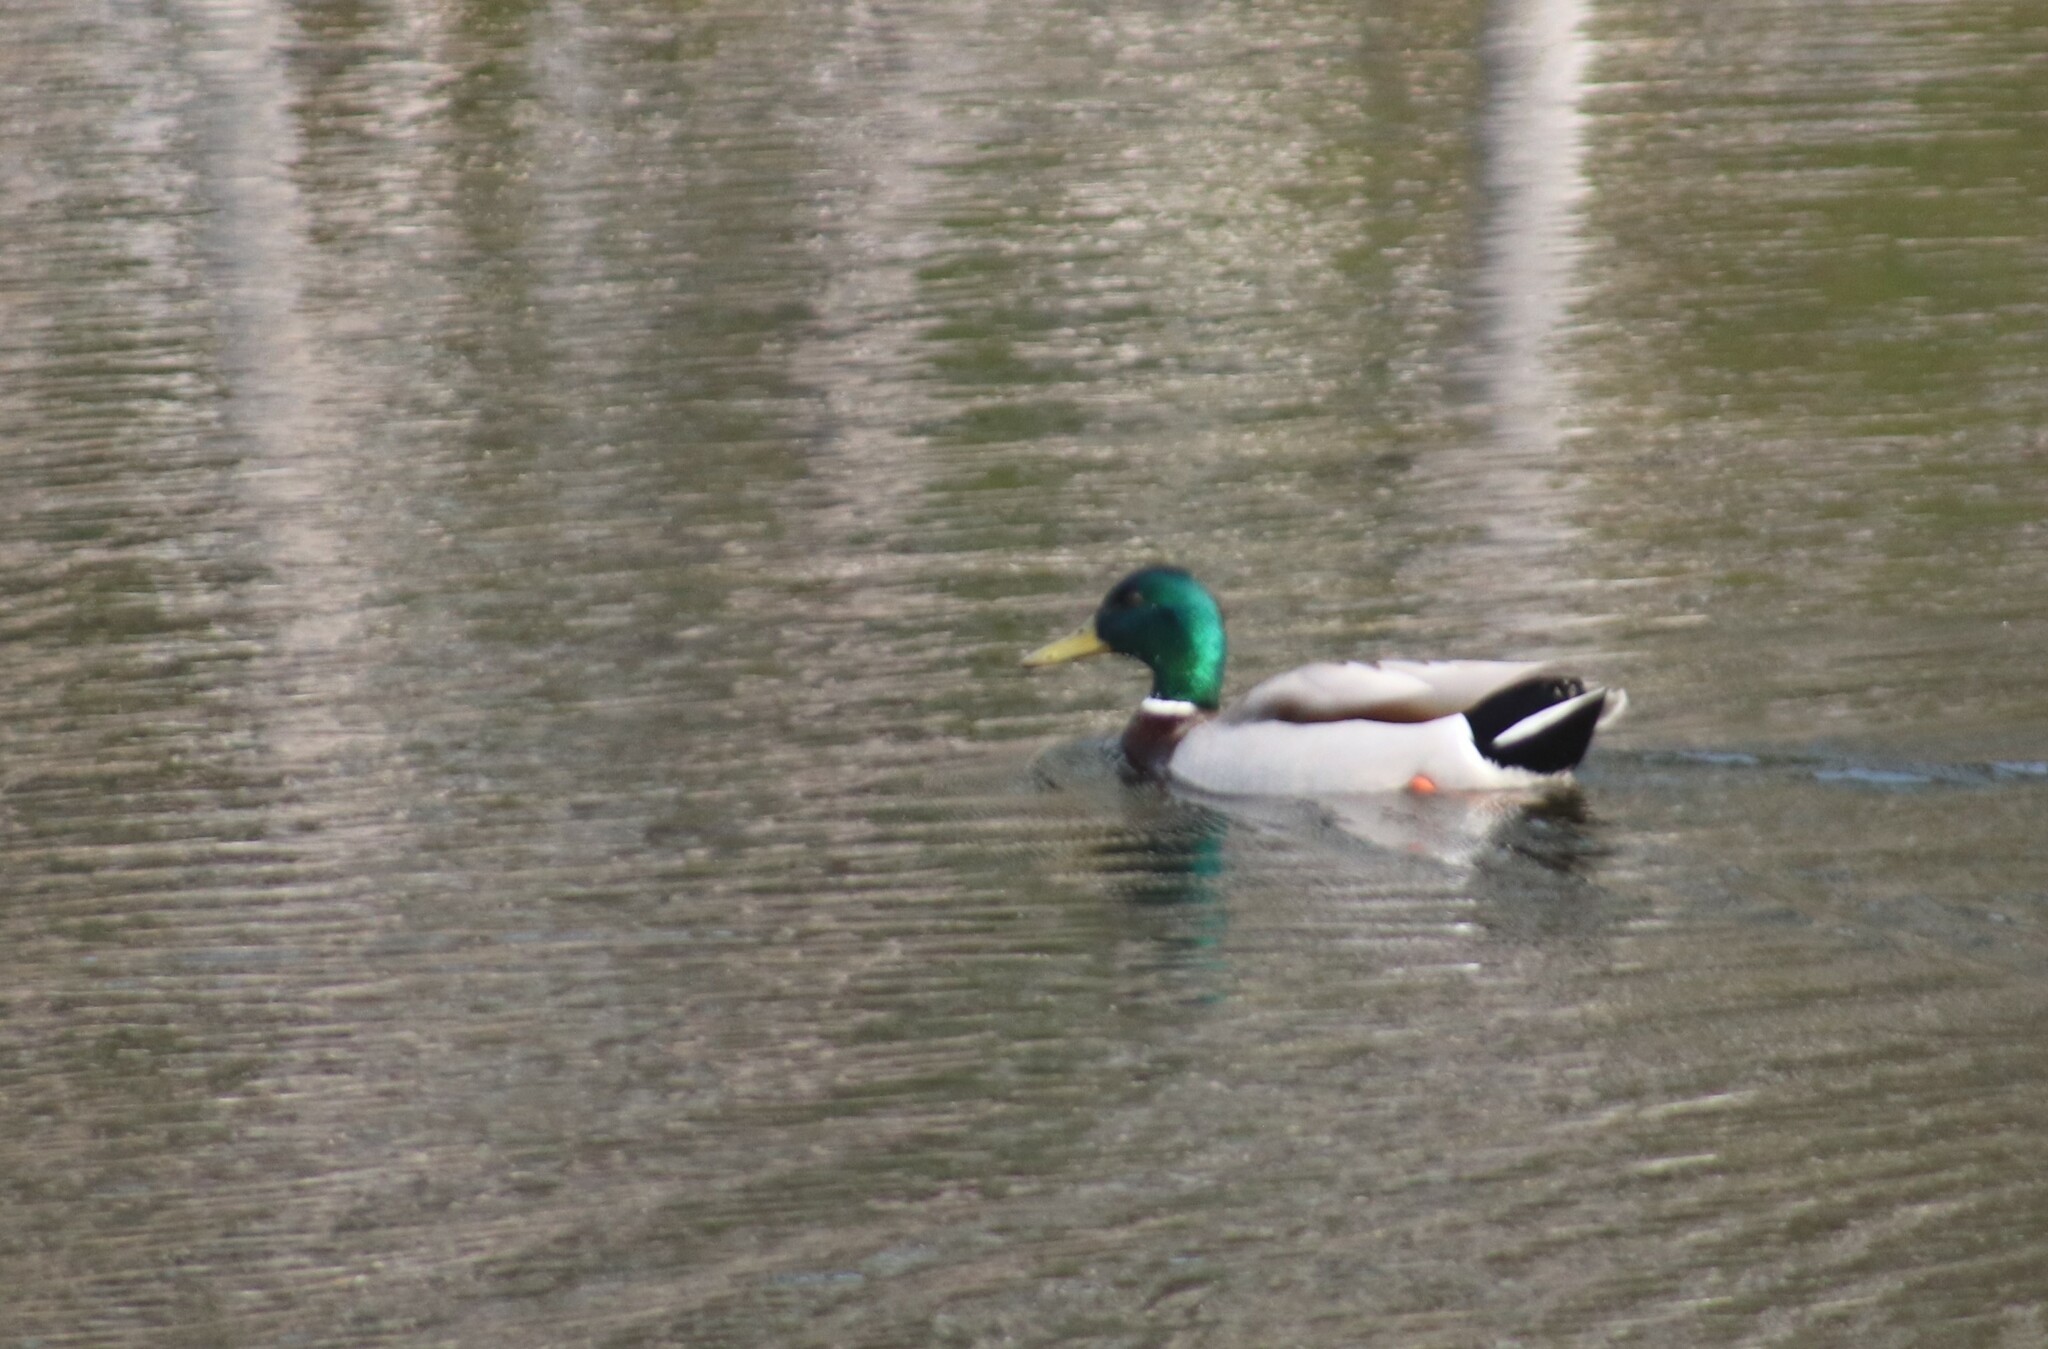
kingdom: Animalia
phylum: Chordata
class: Aves
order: Anseriformes
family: Anatidae
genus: Anas
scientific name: Anas platyrhynchos
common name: Mallard
